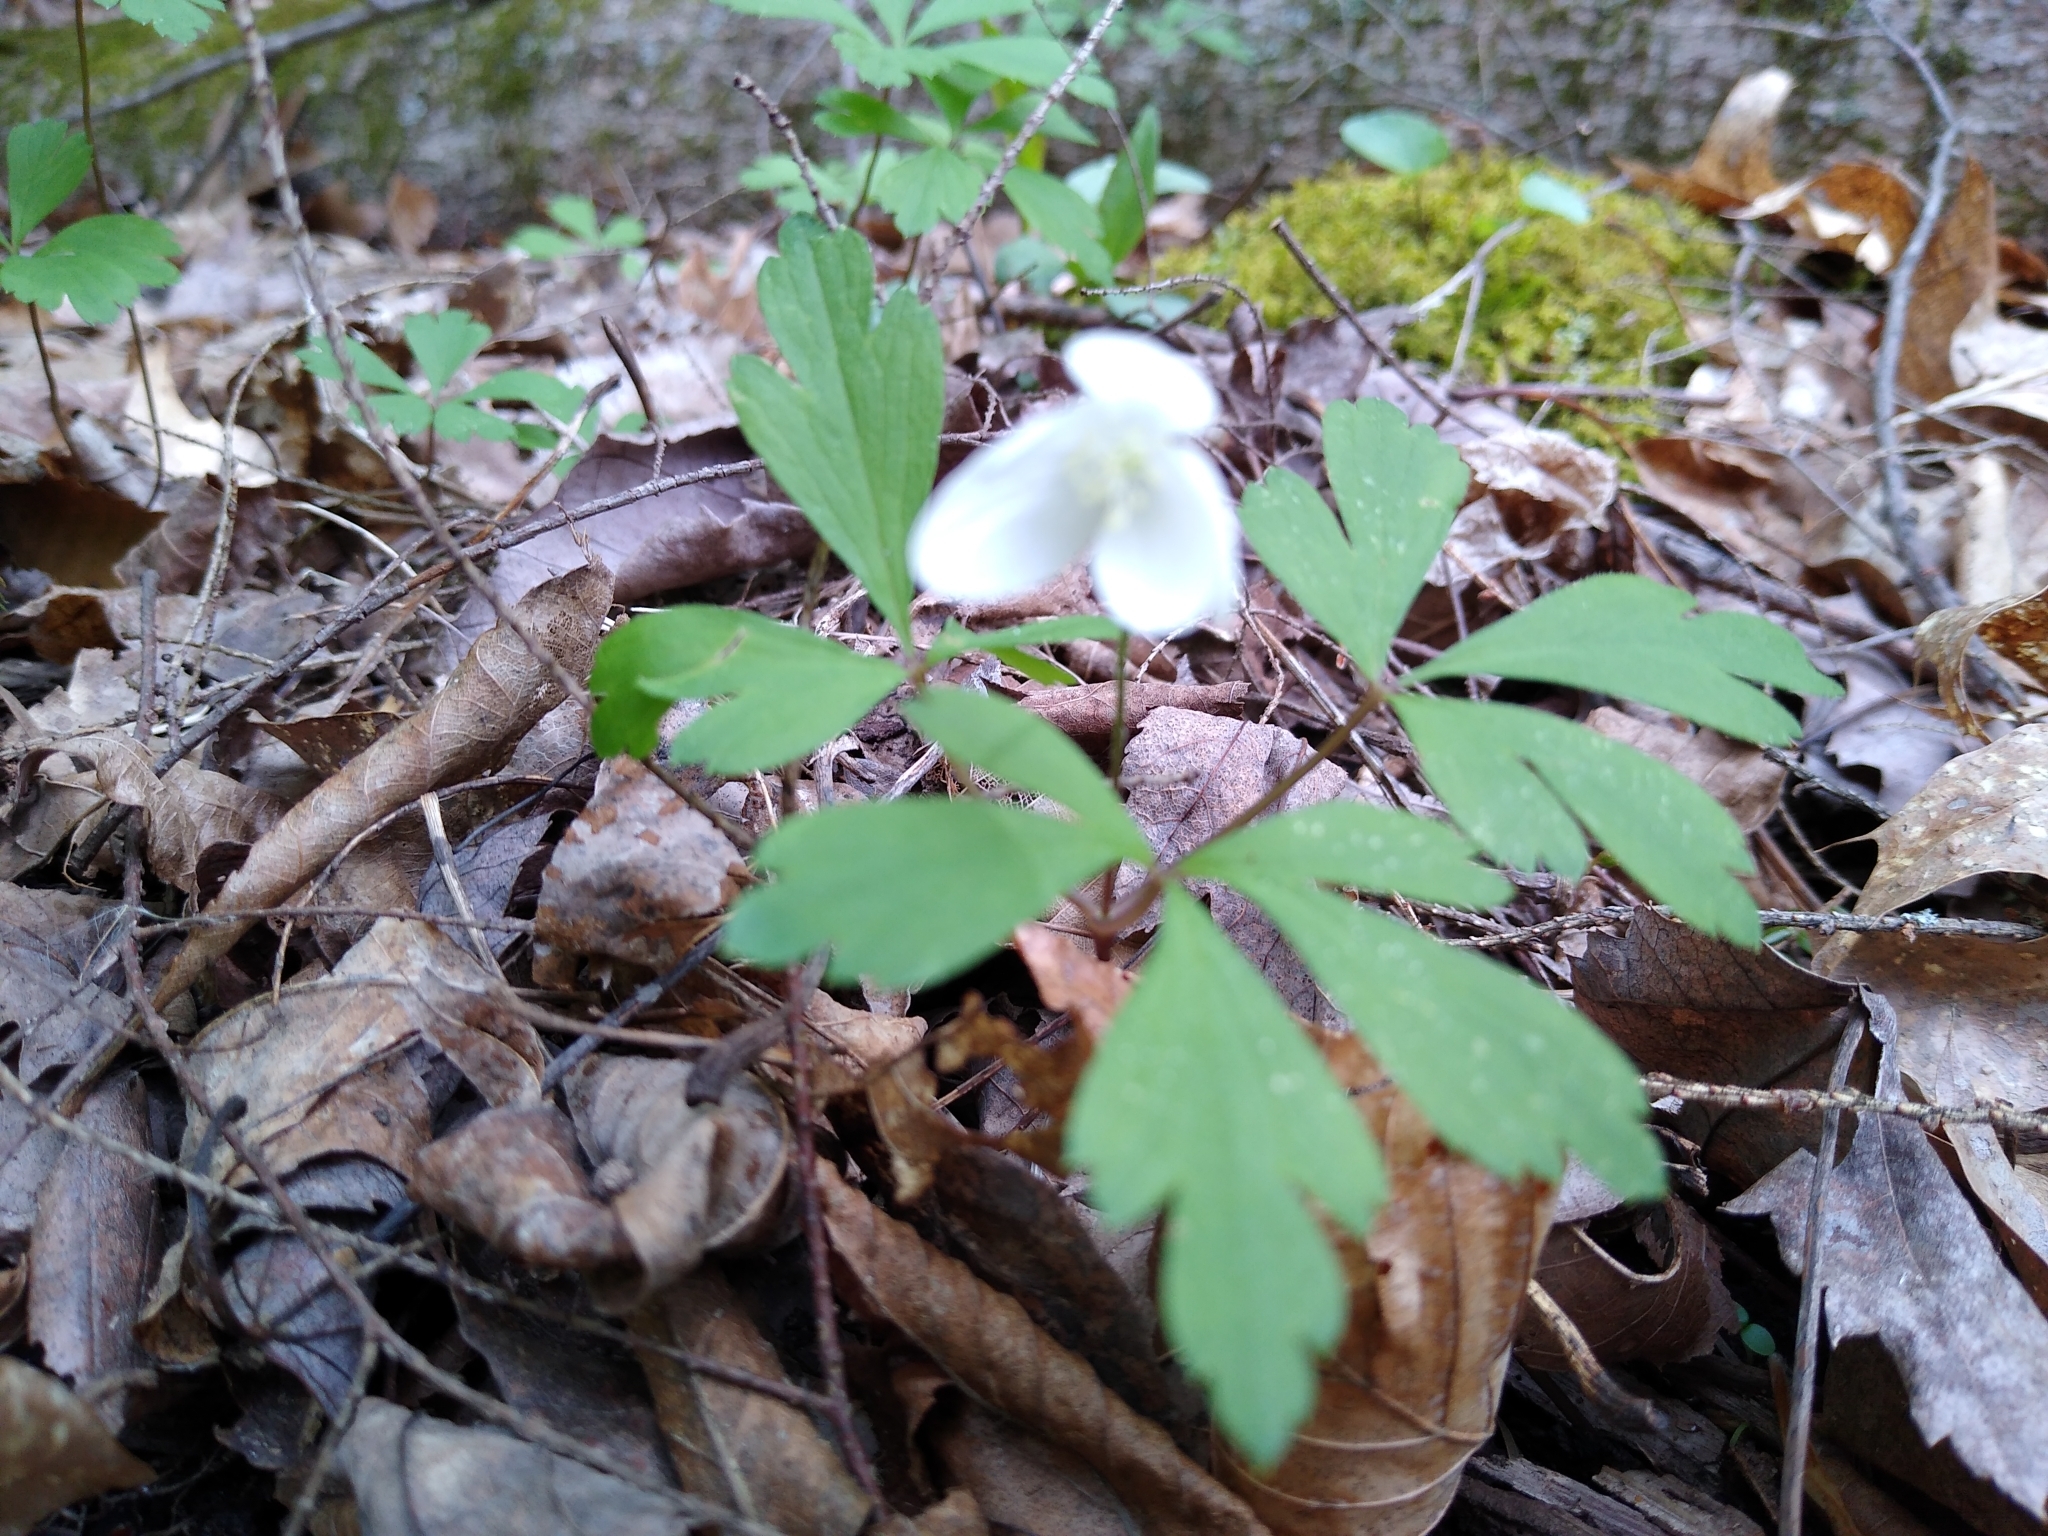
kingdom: Plantae
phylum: Tracheophyta
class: Magnoliopsida
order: Ranunculales
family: Ranunculaceae
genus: Anemone
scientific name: Anemone quinquefolia
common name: Wood anemone
